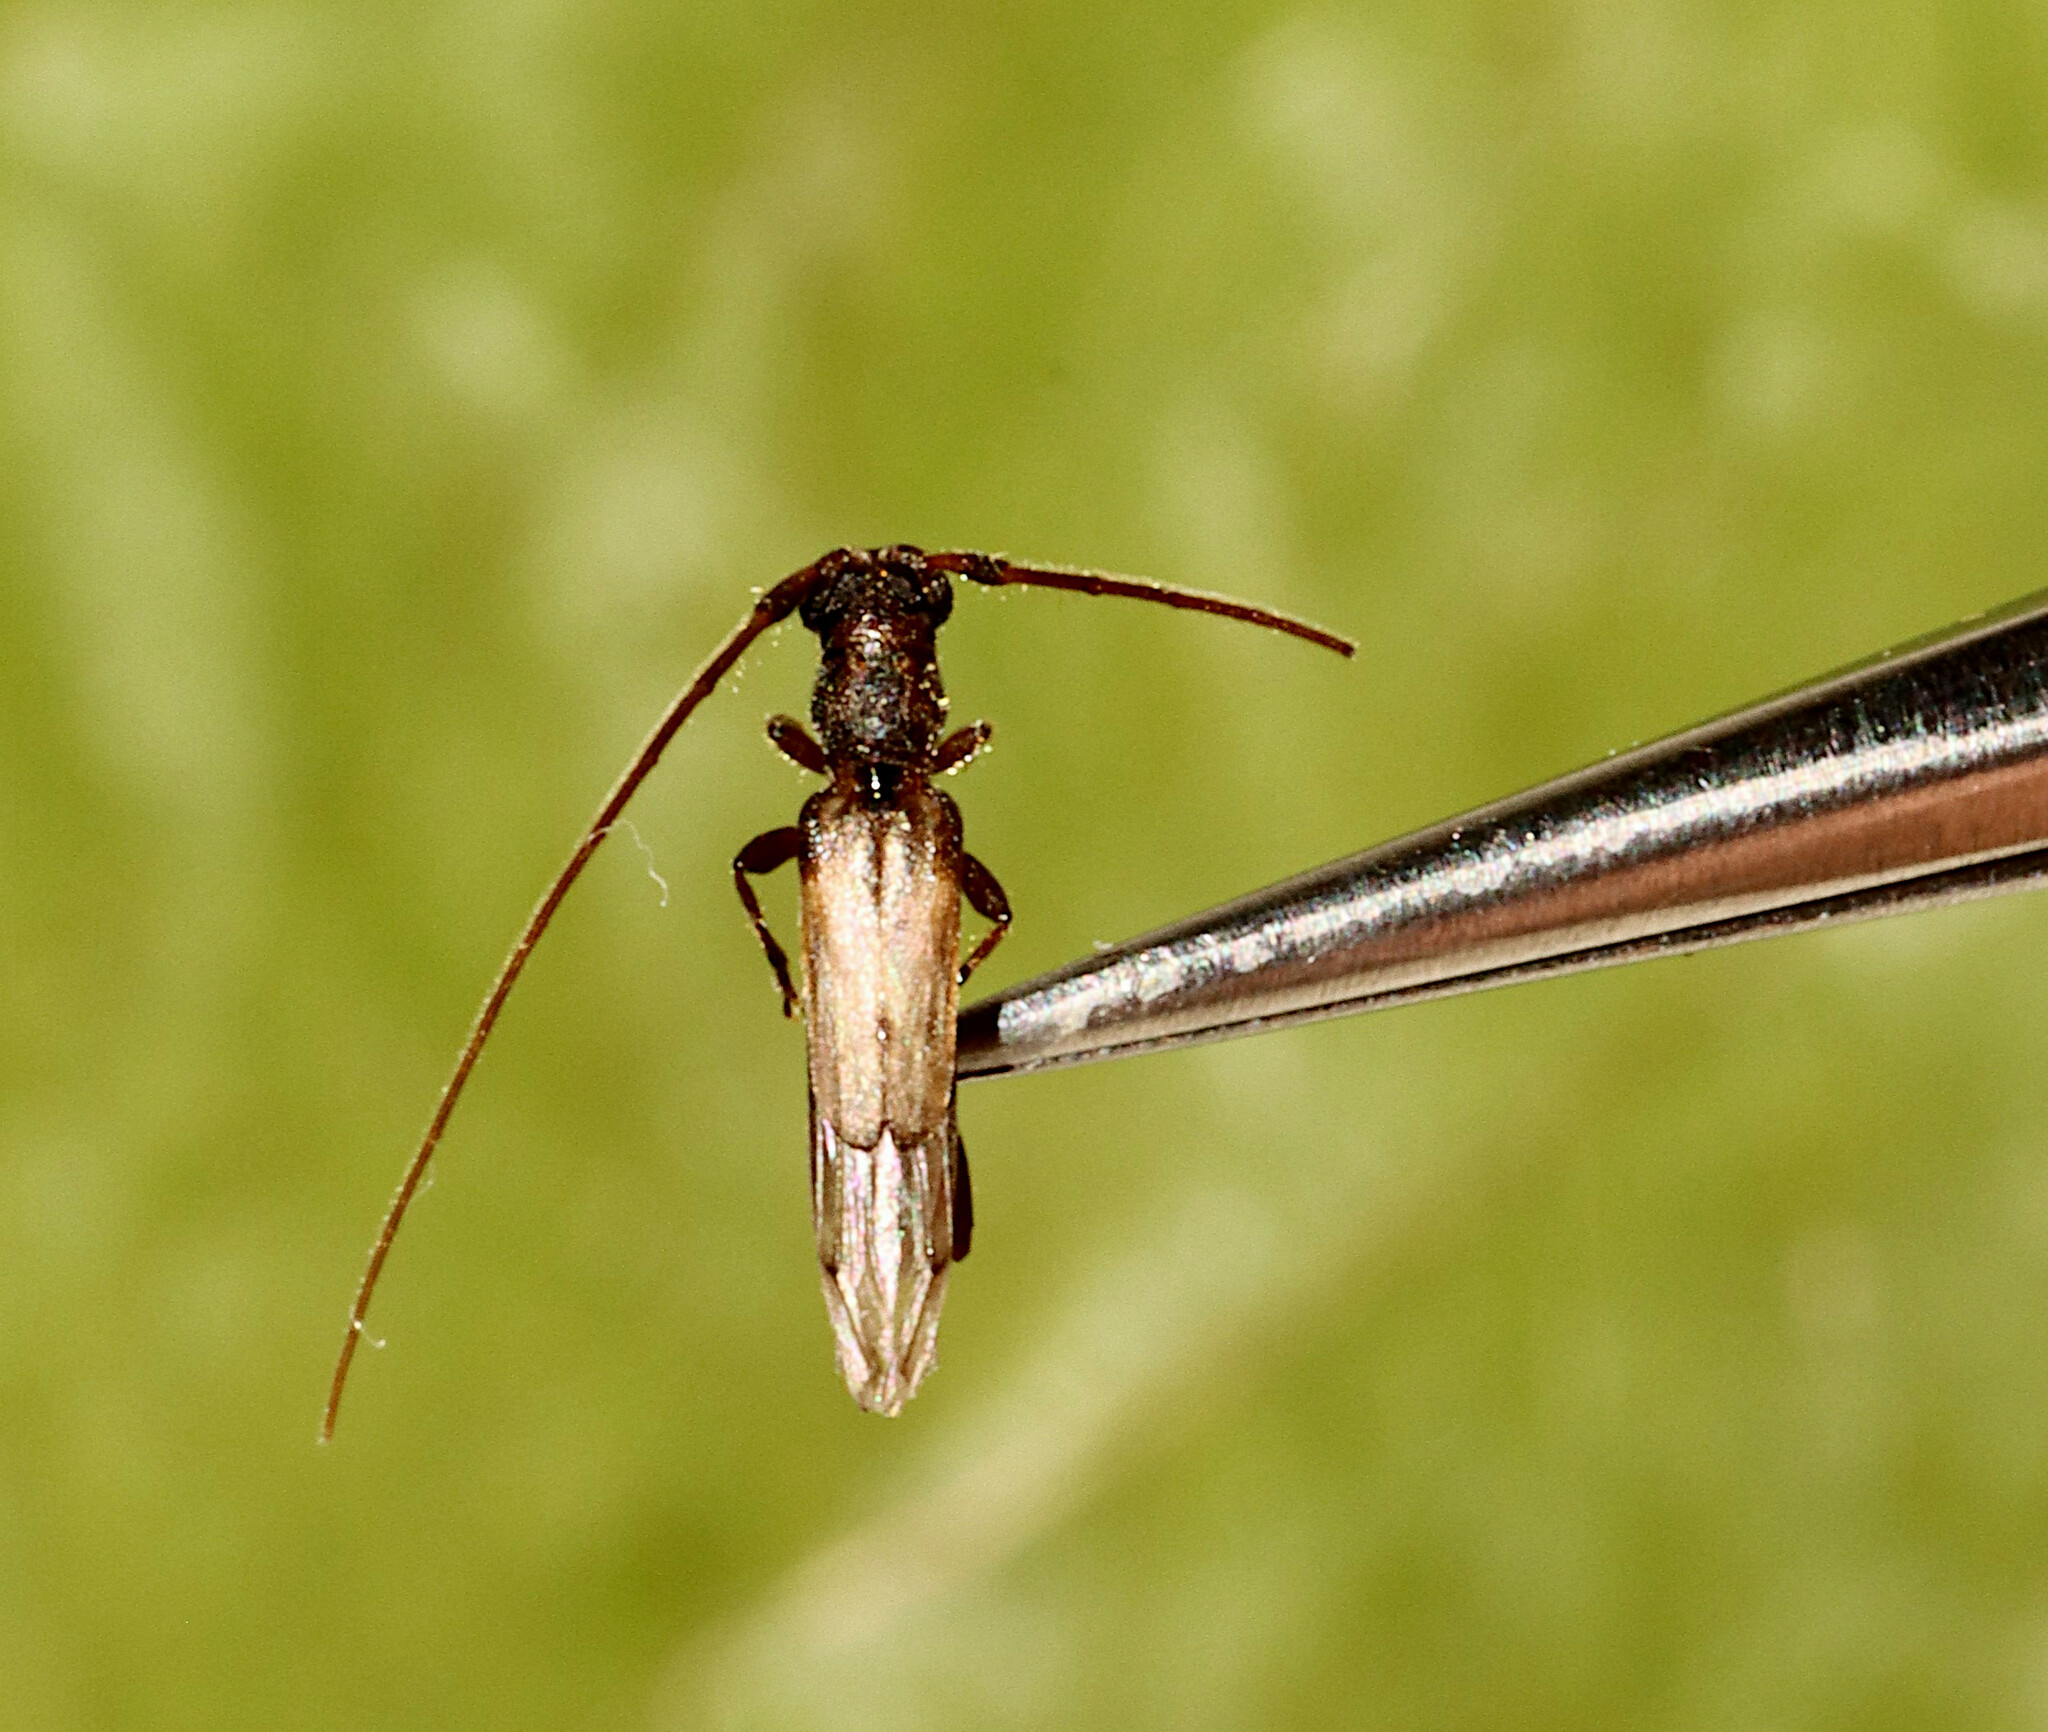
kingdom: Animalia
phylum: Arthropoda
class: Insecta
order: Coleoptera
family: Cerambycidae
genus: Methia
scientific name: Methia necydalea
